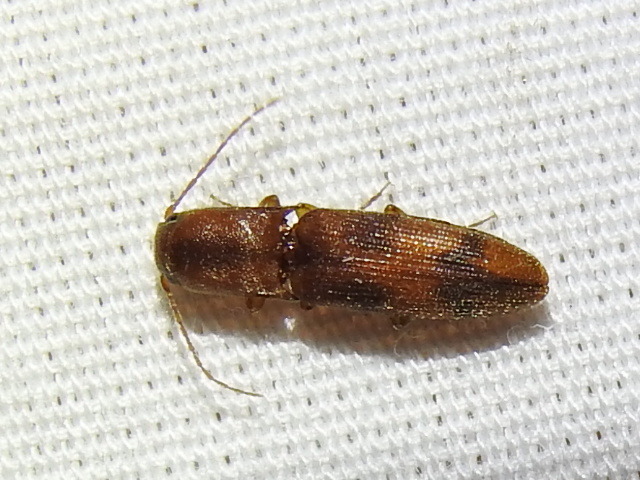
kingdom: Animalia
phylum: Arthropoda
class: Insecta
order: Coleoptera
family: Elateridae
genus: Aeolus
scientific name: Aeolus
